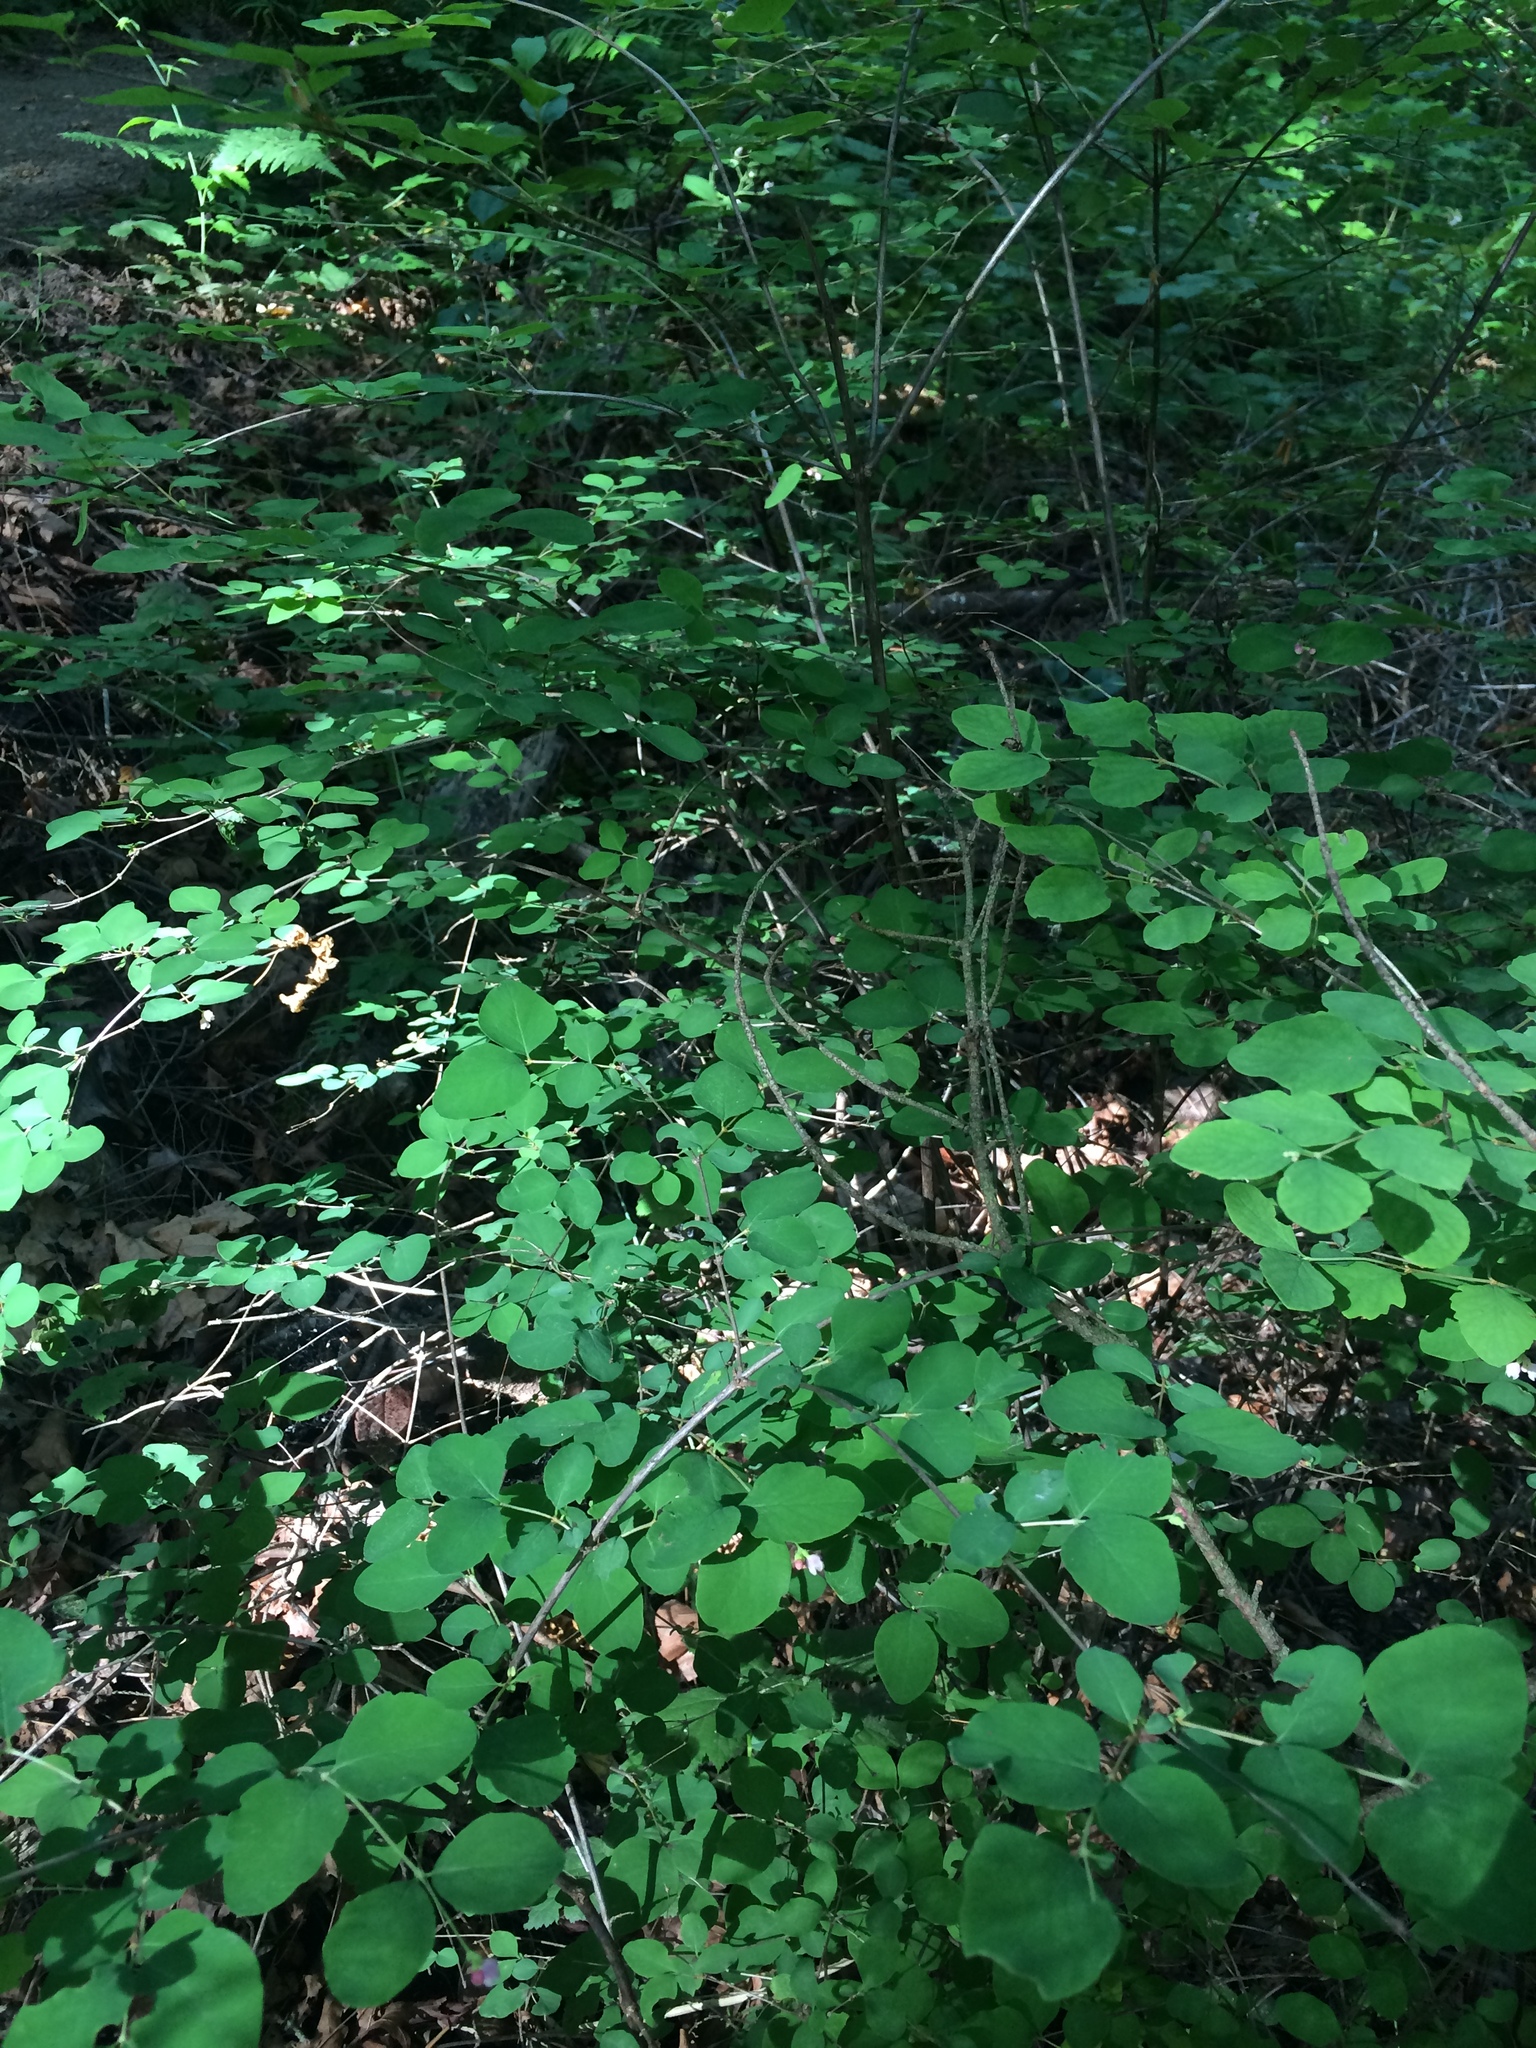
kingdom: Plantae
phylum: Tracheophyta
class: Magnoliopsida
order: Dipsacales
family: Caprifoliaceae
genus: Symphoricarpos
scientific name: Symphoricarpos albus
